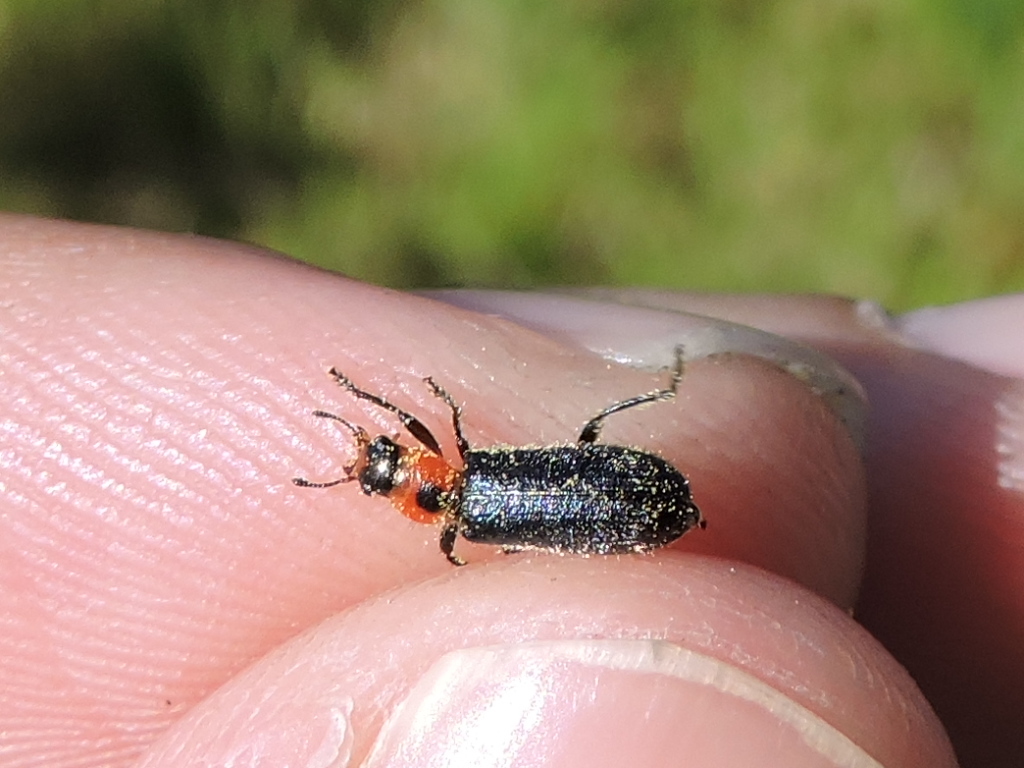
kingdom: Animalia
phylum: Arthropoda
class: Insecta
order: Coleoptera
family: Cleridae
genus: Placopterus
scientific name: Placopterus thoracicus
